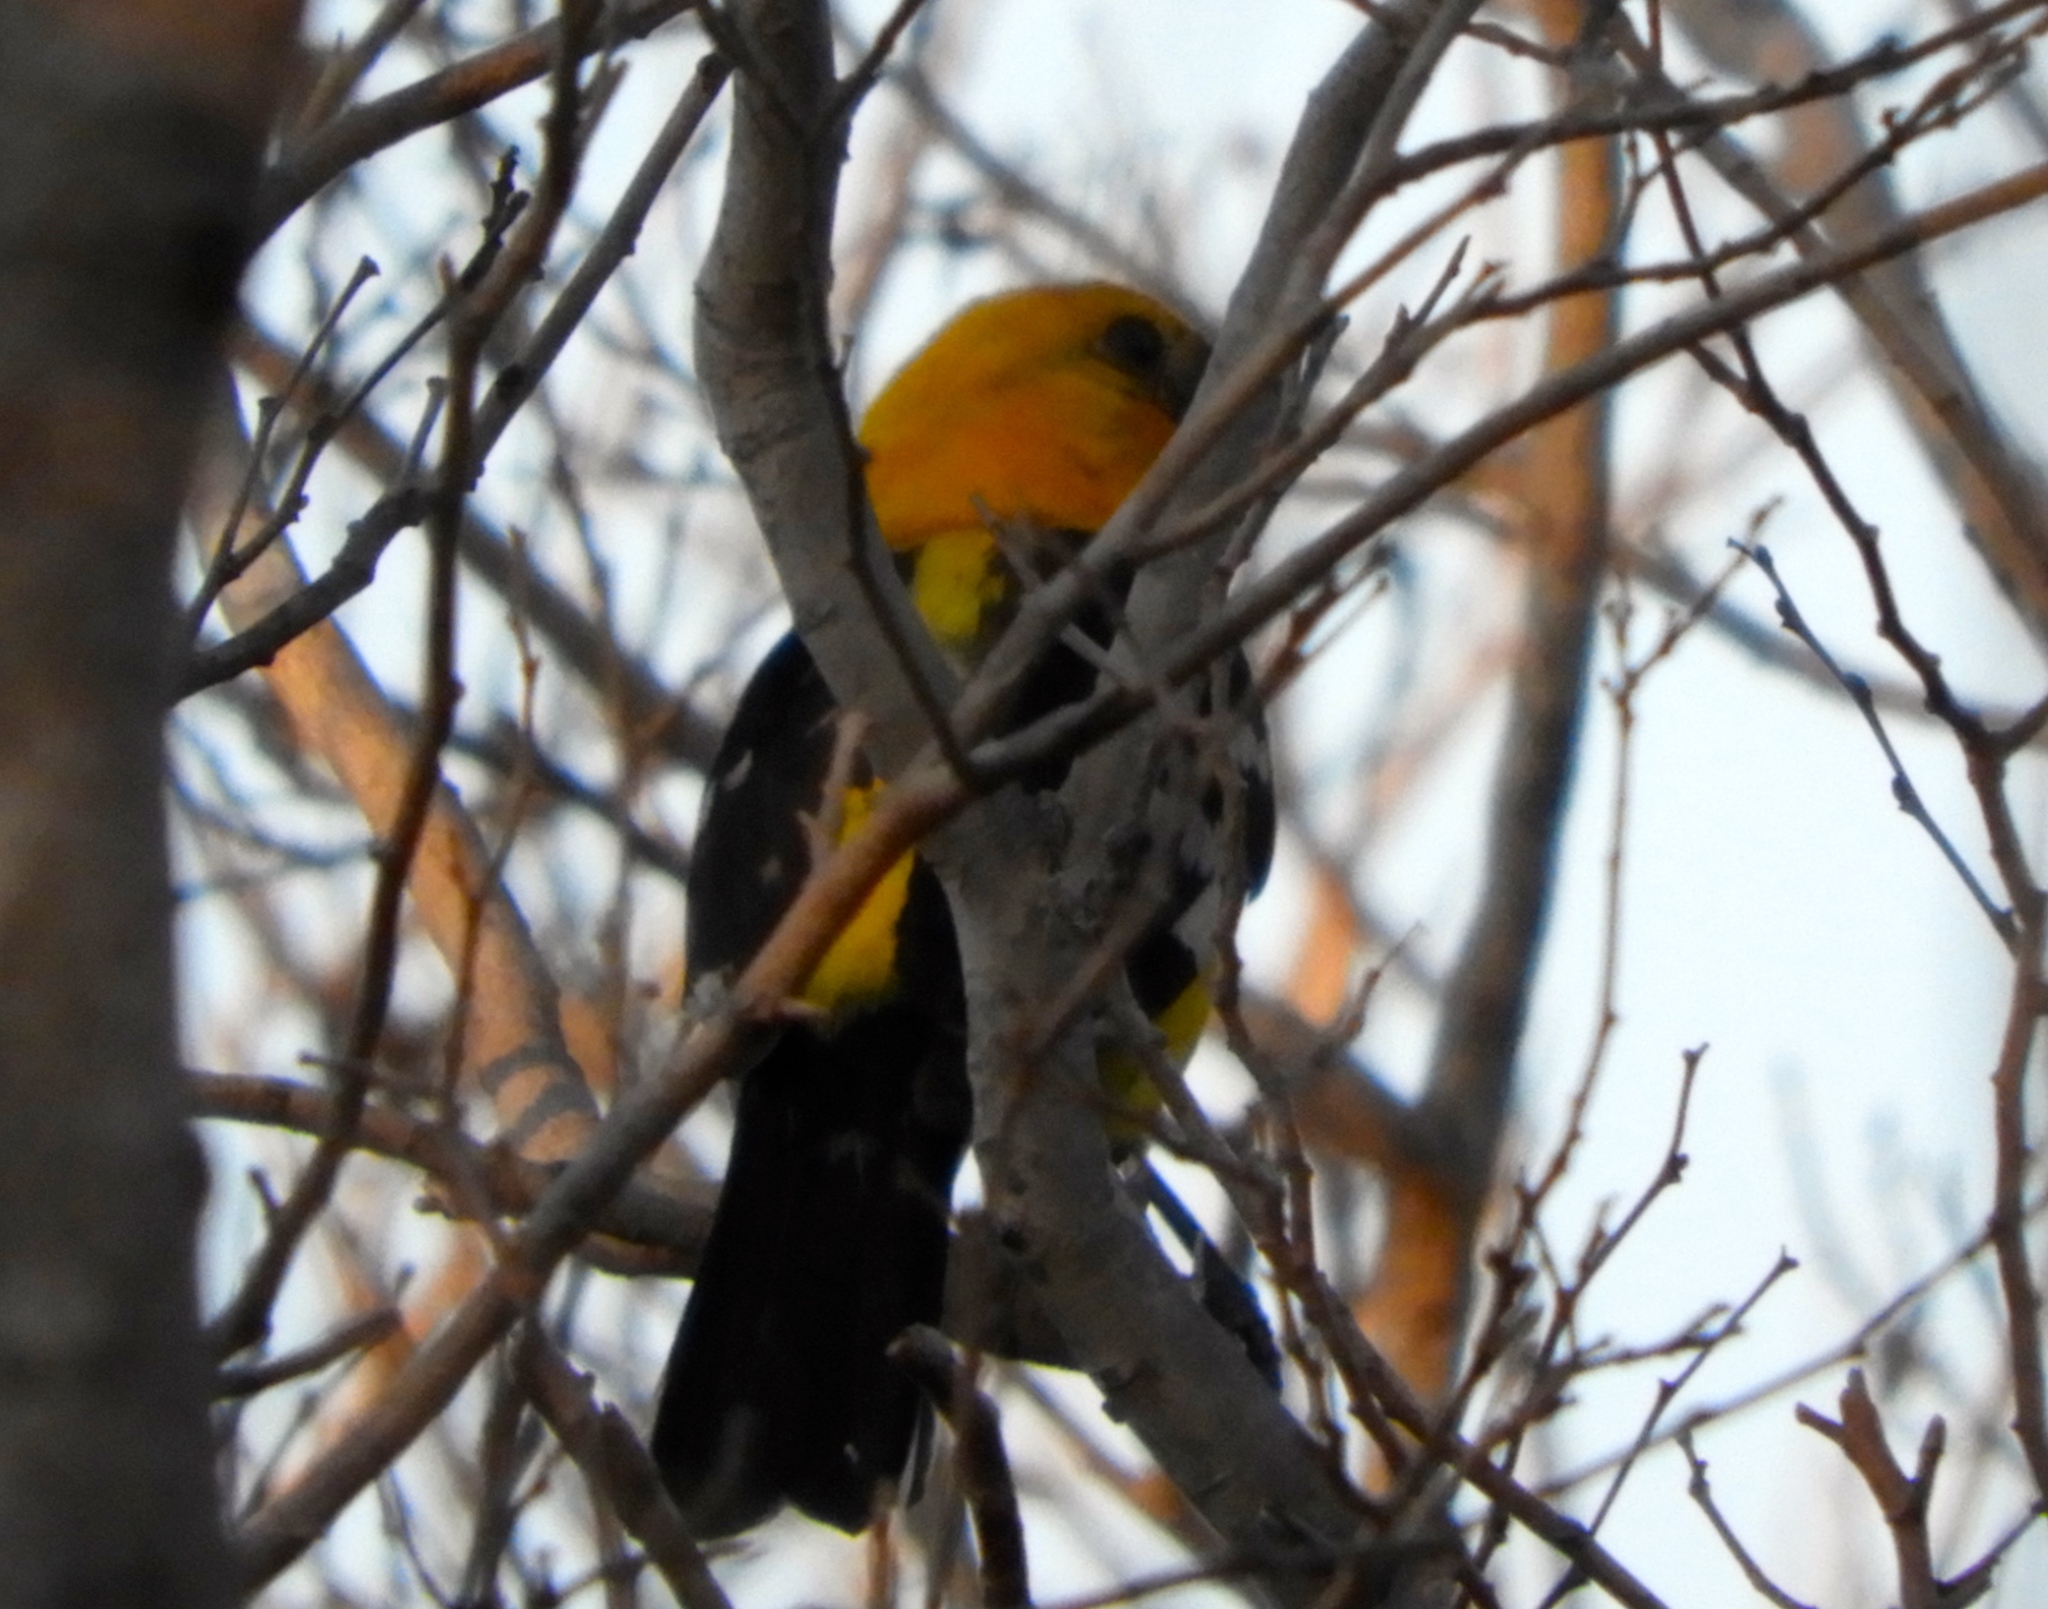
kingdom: Animalia
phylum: Chordata
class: Aves
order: Passeriformes
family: Cardinalidae
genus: Pheucticus
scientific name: Pheucticus chrysopeplus
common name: Yellow grosbeak
